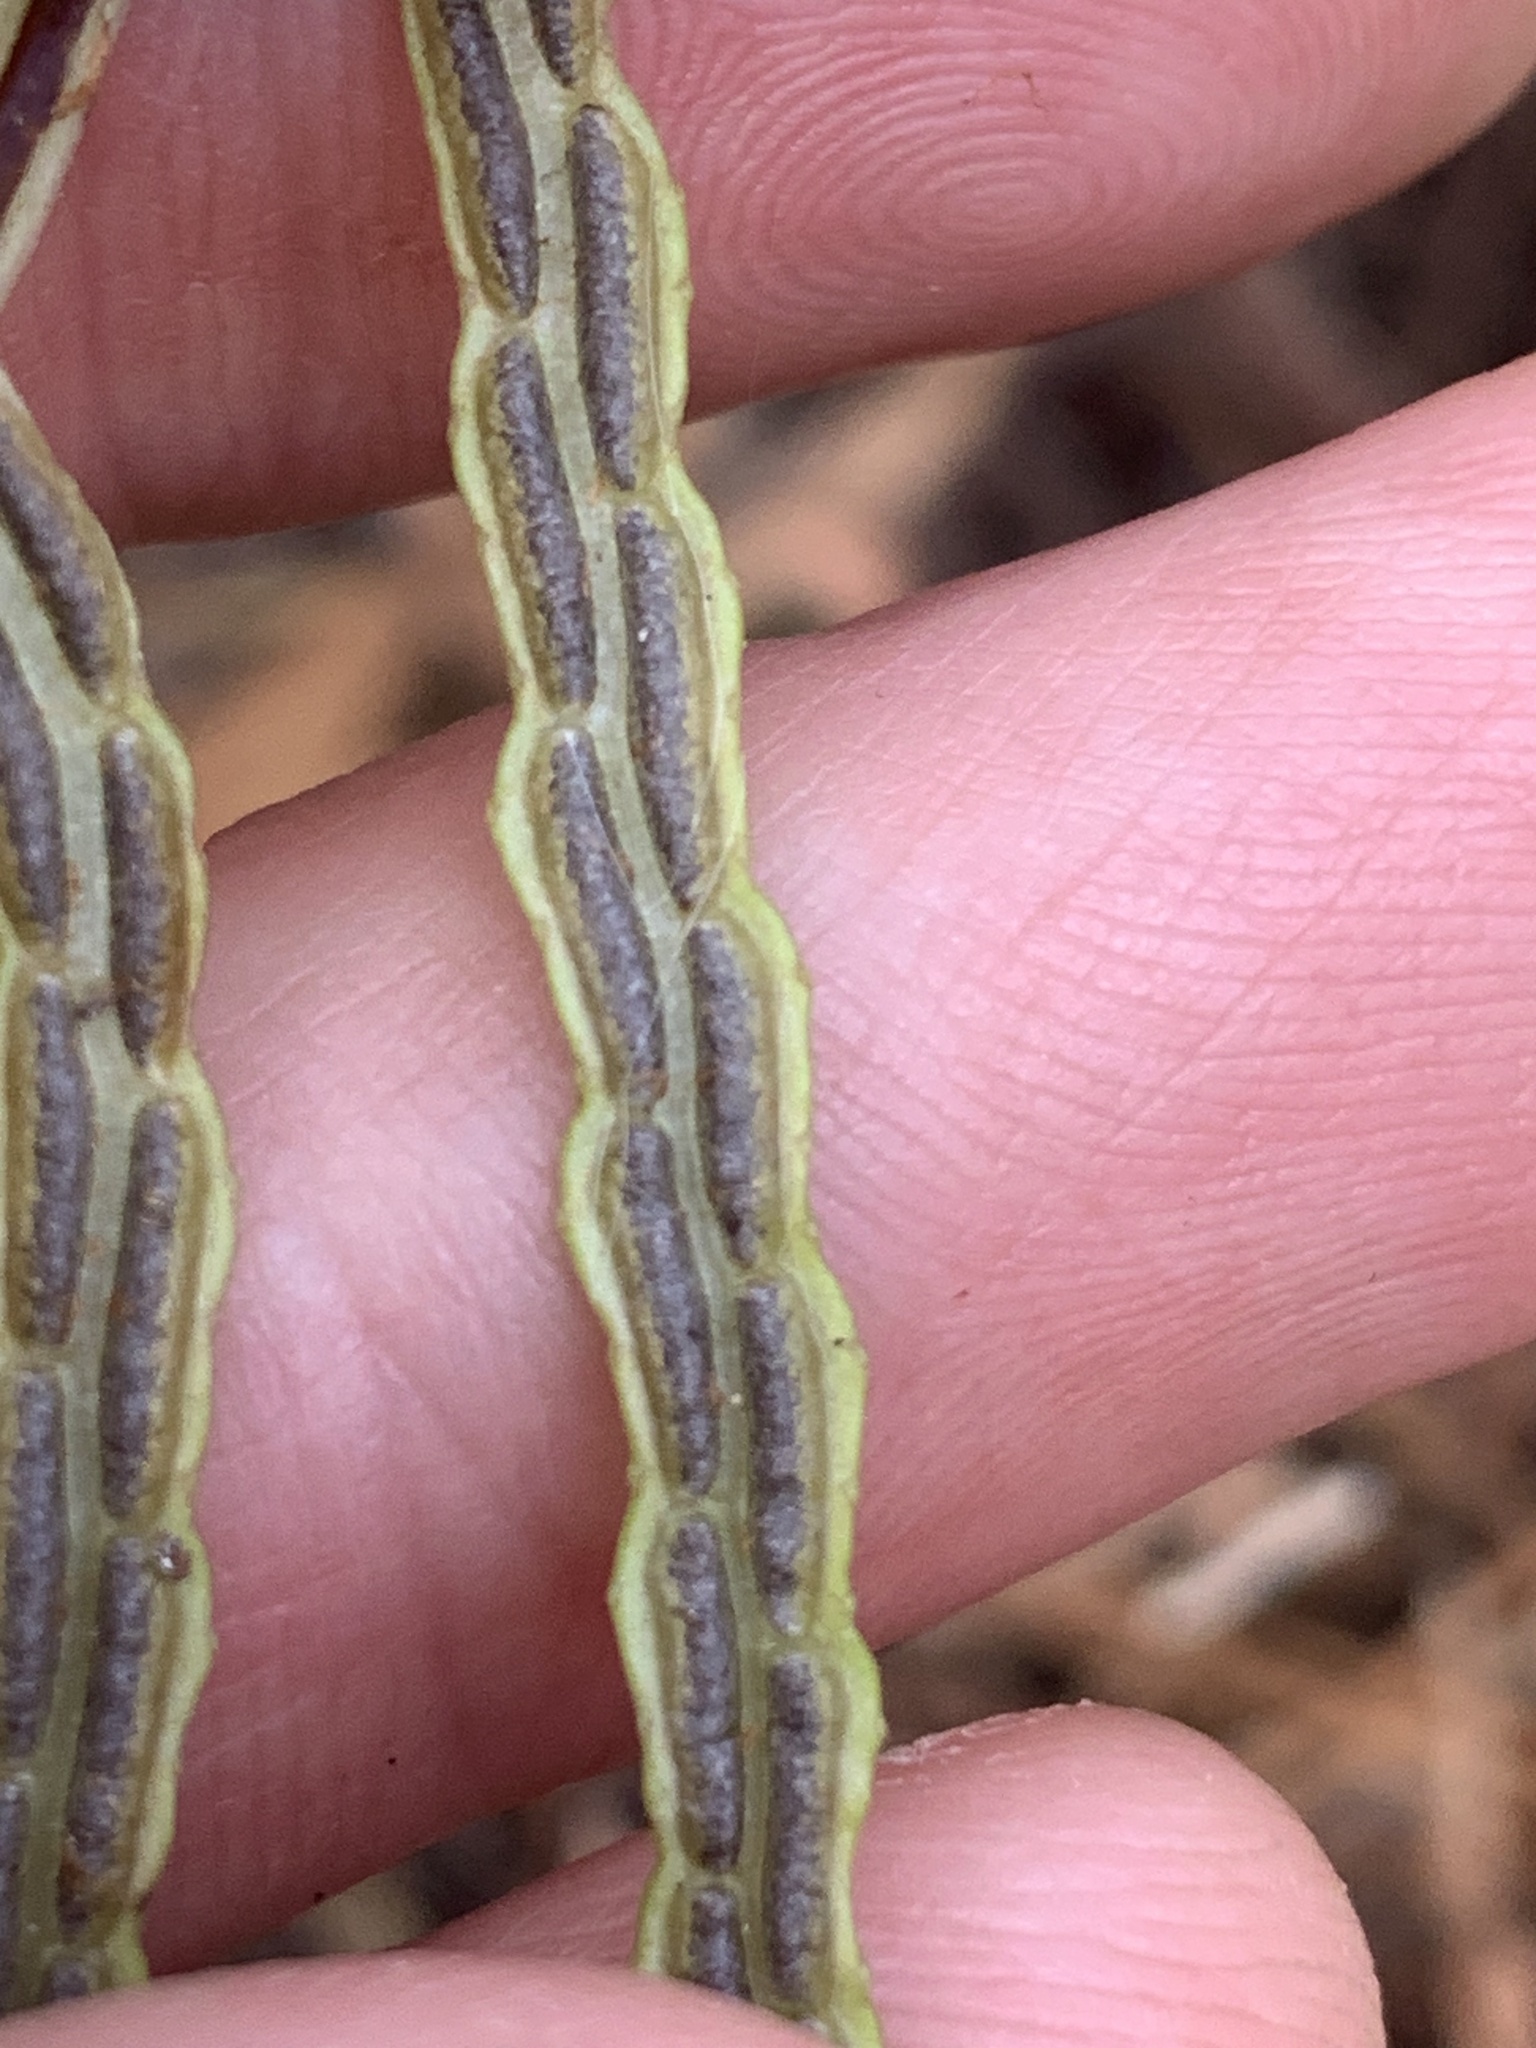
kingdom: Plantae
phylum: Tracheophyta
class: Polypodiopsida
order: Polypodiales
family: Blechnaceae
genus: Lorinseria
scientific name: Lorinseria areolata
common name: Dwarf chain fern
